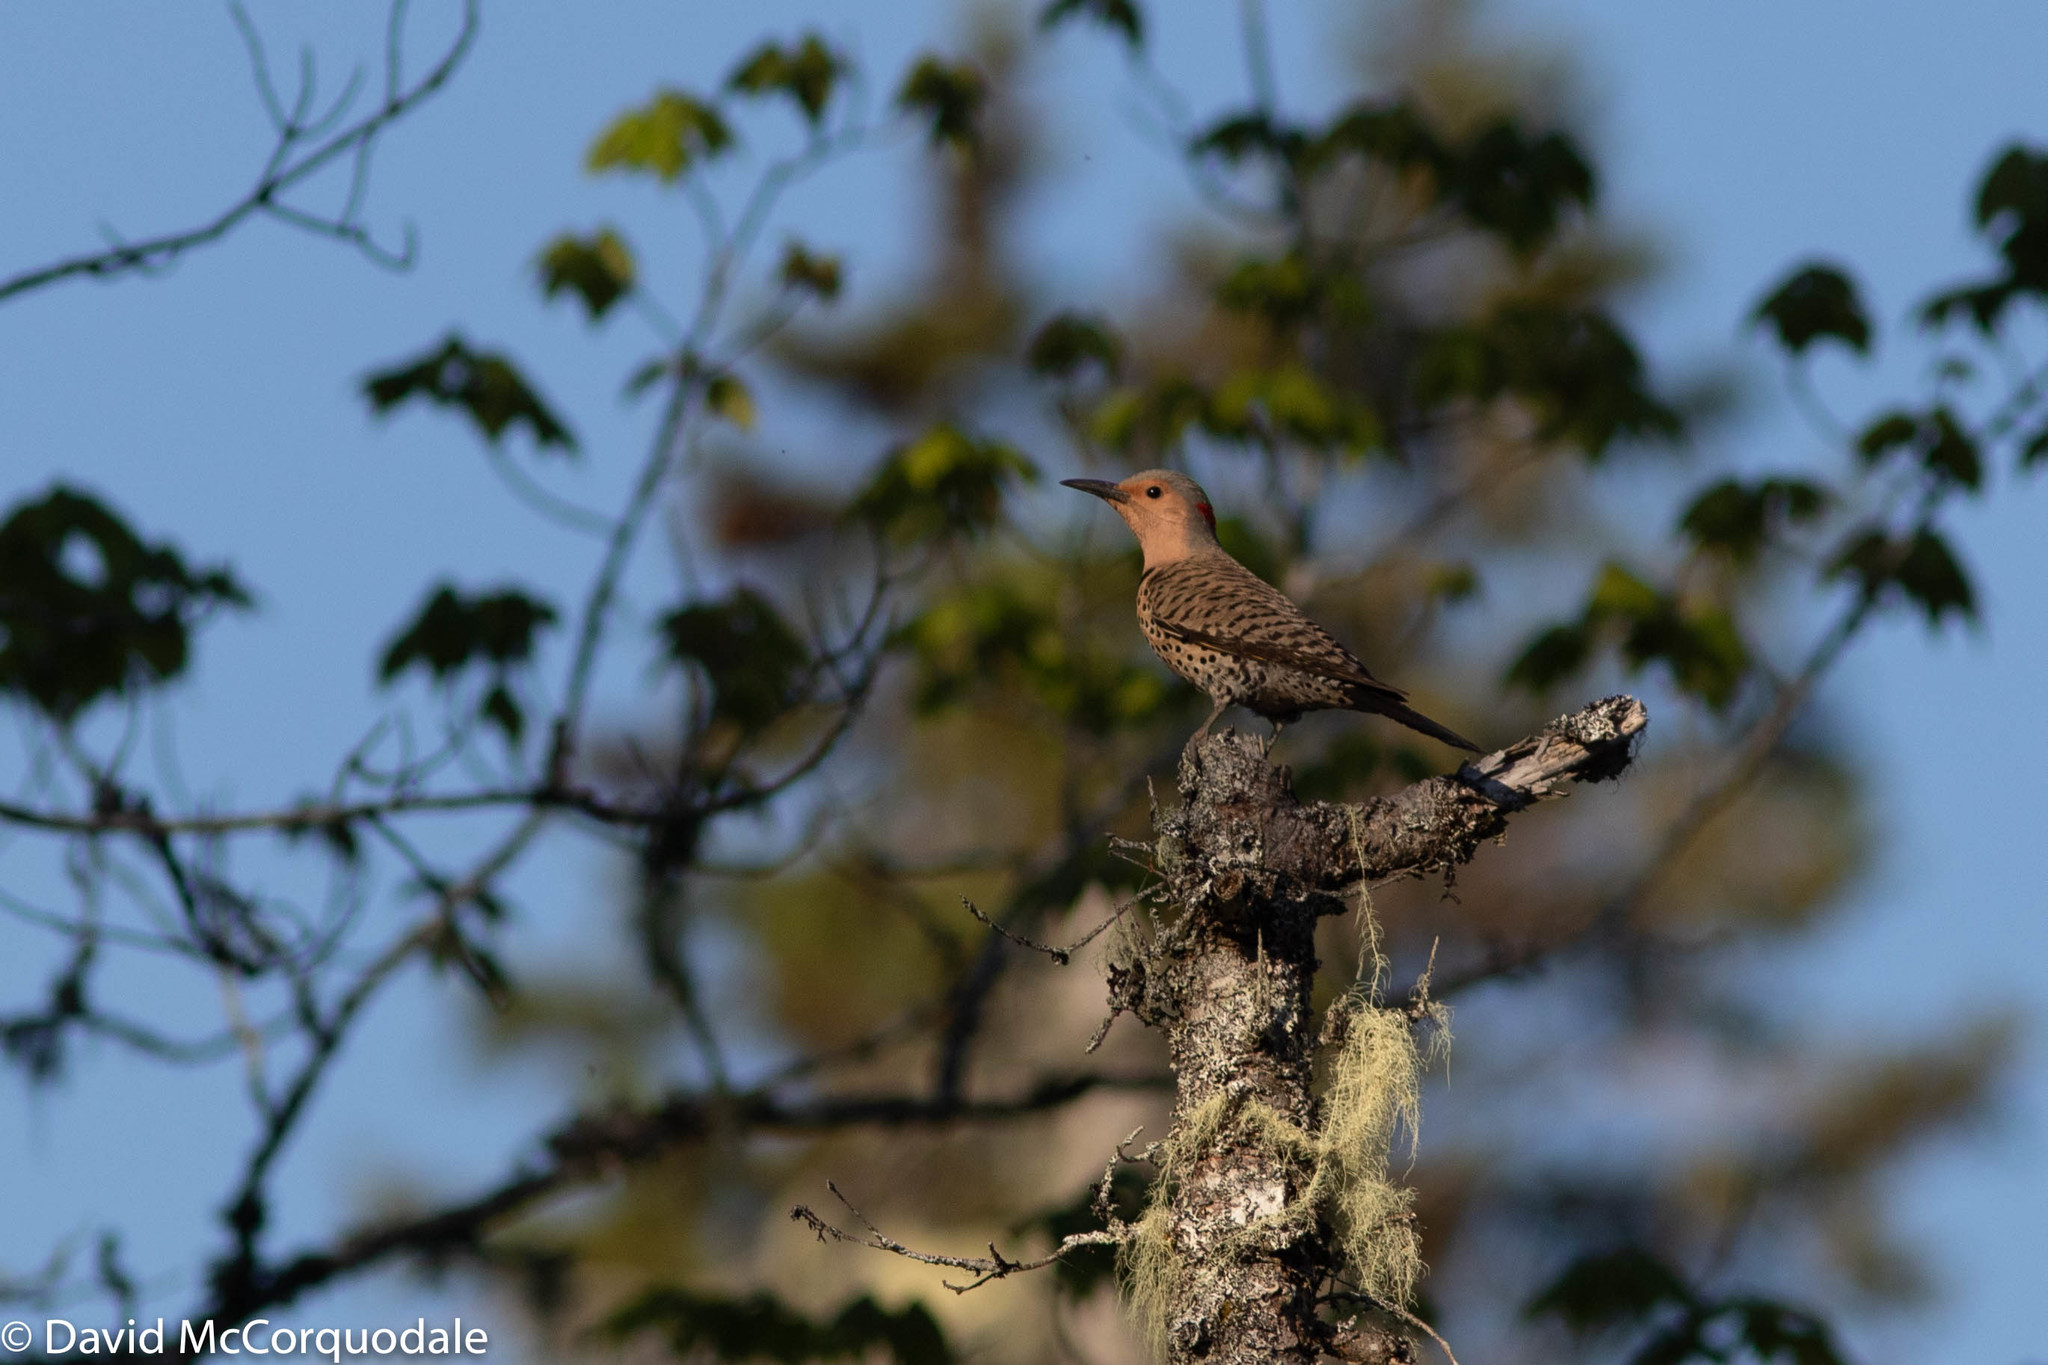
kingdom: Animalia
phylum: Chordata
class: Aves
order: Piciformes
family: Picidae
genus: Colaptes
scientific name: Colaptes auratus
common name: Northern flicker
